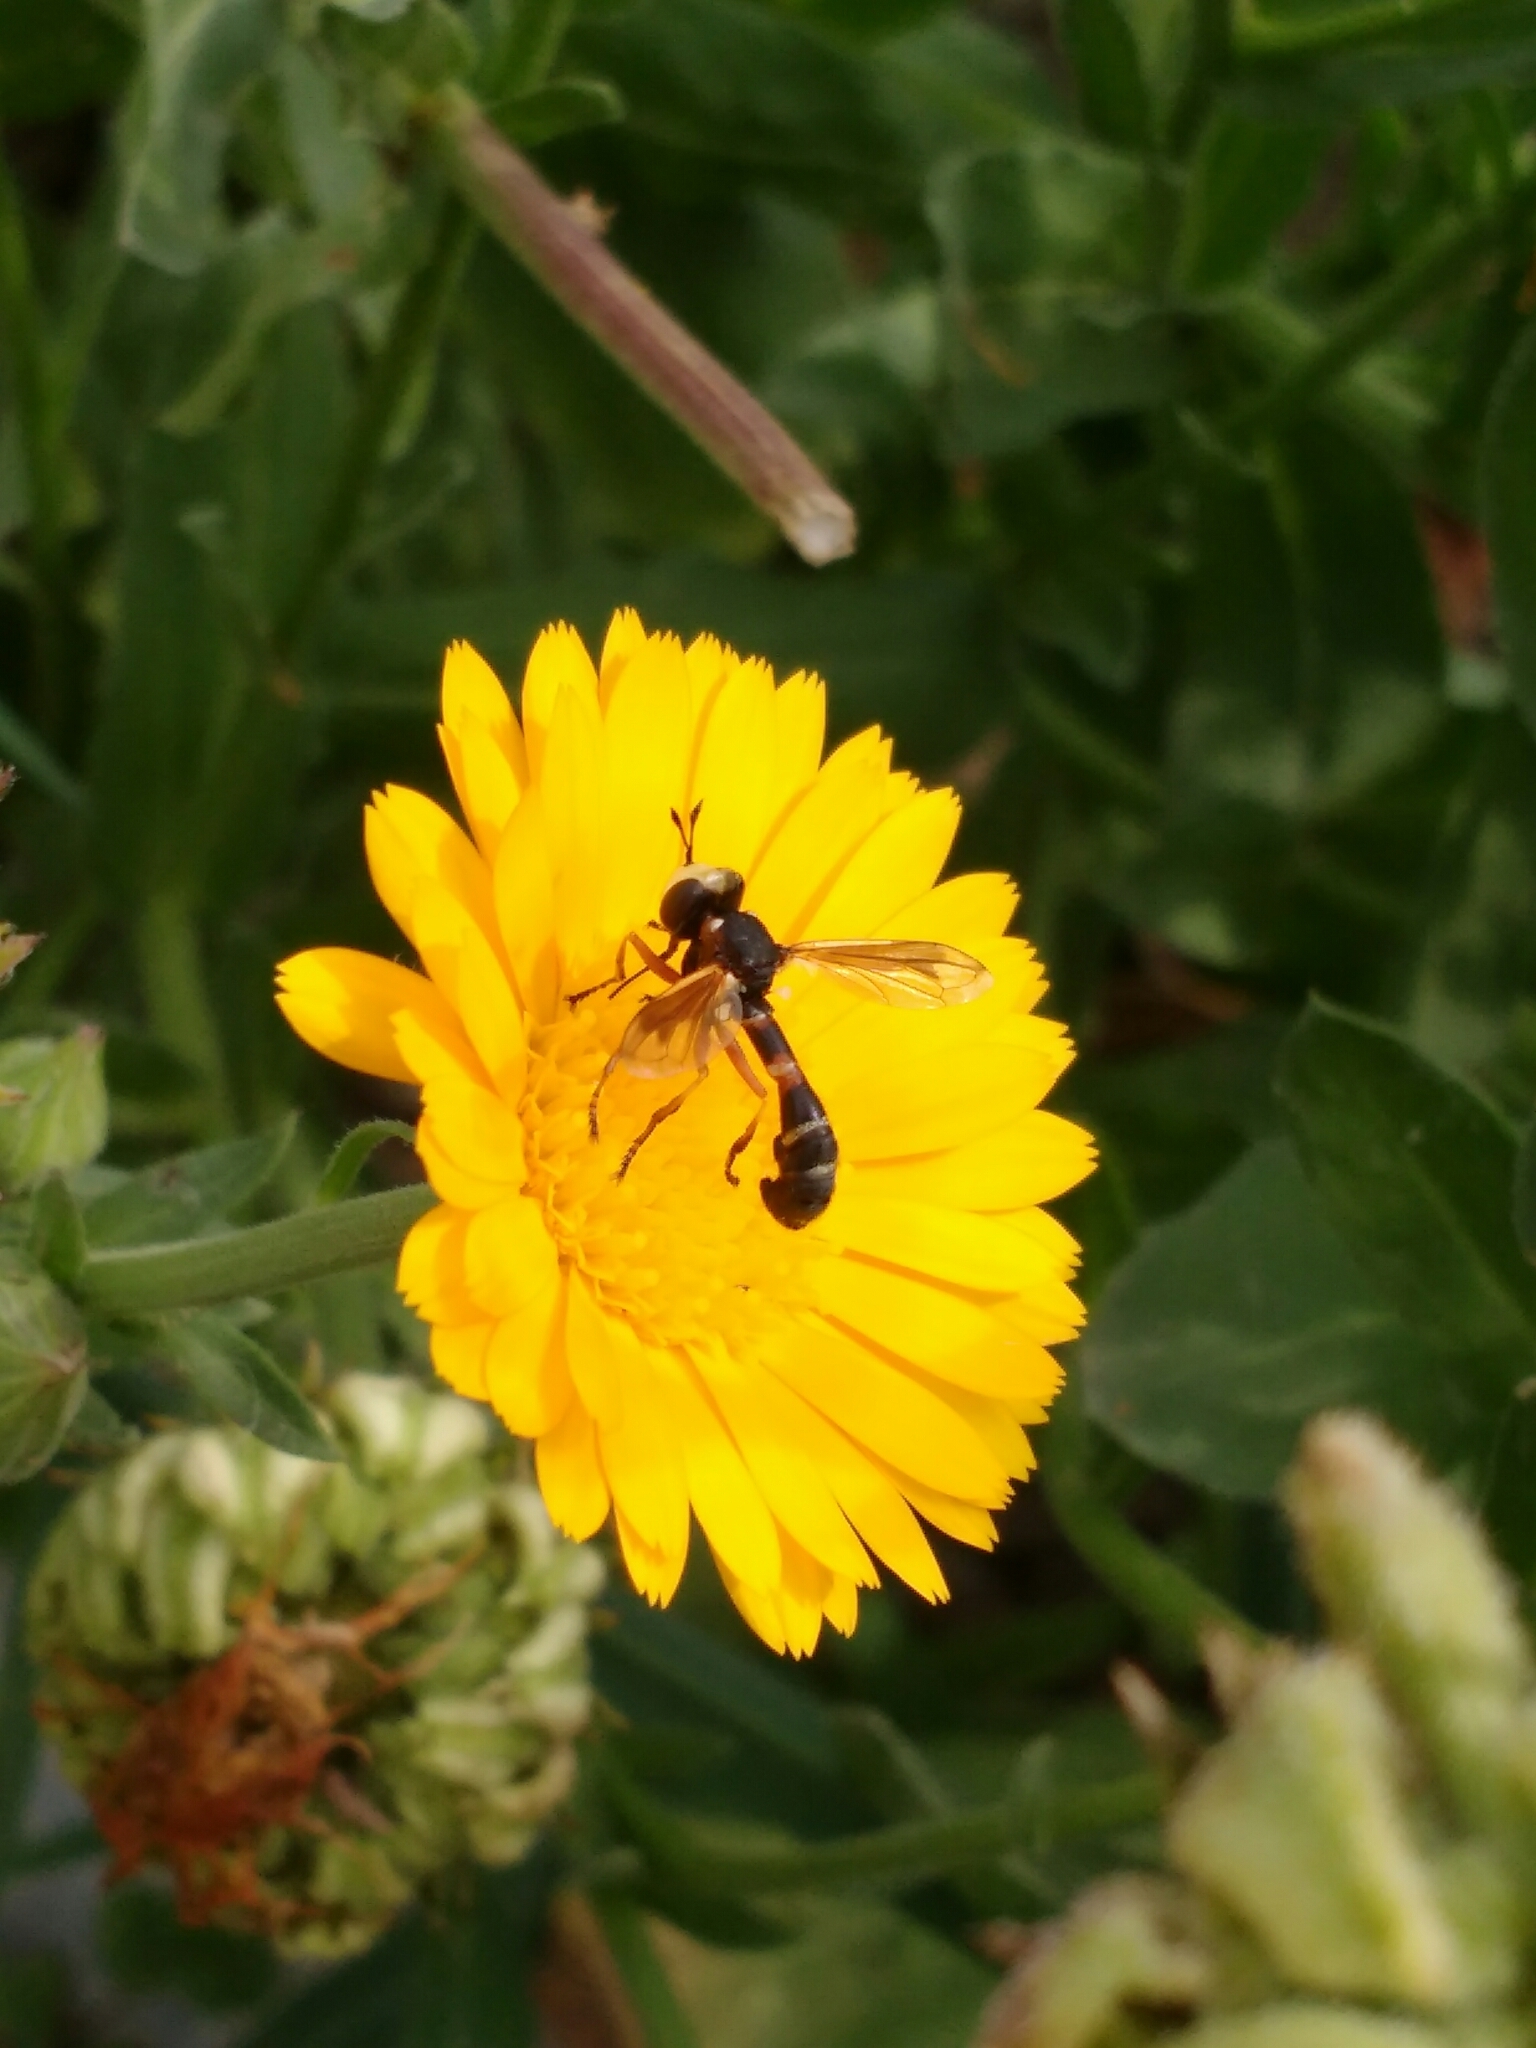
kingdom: Animalia
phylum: Arthropoda
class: Insecta
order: Diptera
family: Conopidae
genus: Physocephala
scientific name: Physocephala vittata
